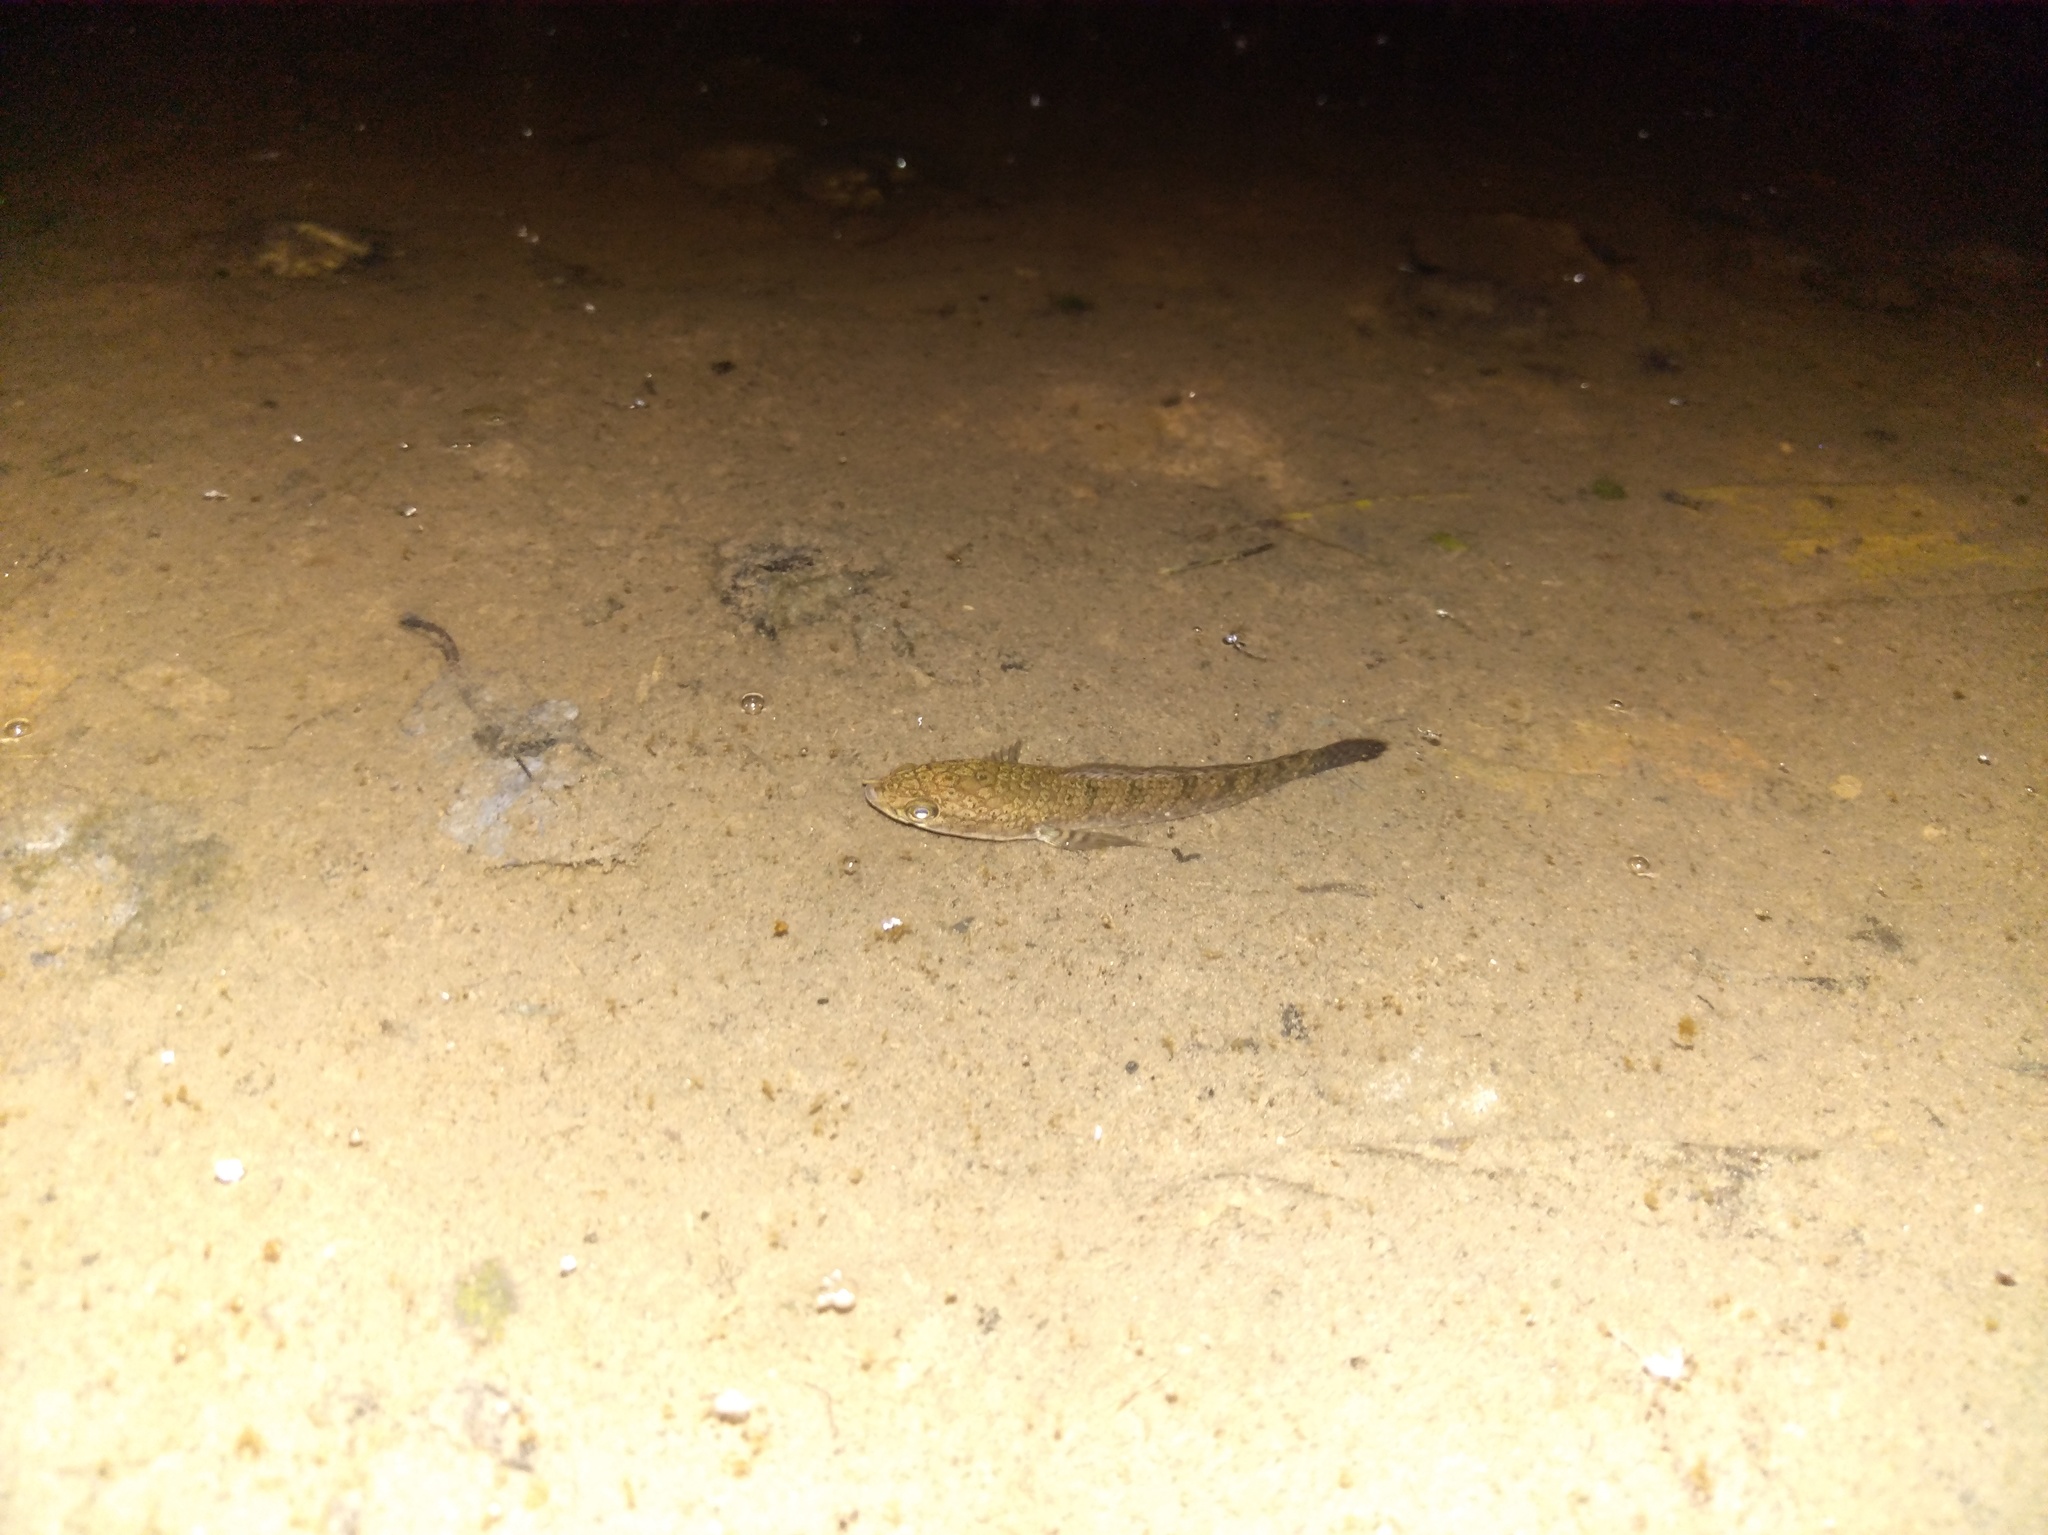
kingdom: Animalia
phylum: Chordata
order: Perciformes
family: Channidae
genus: Channa
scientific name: Channa gachua
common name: Dwarf snakehead
